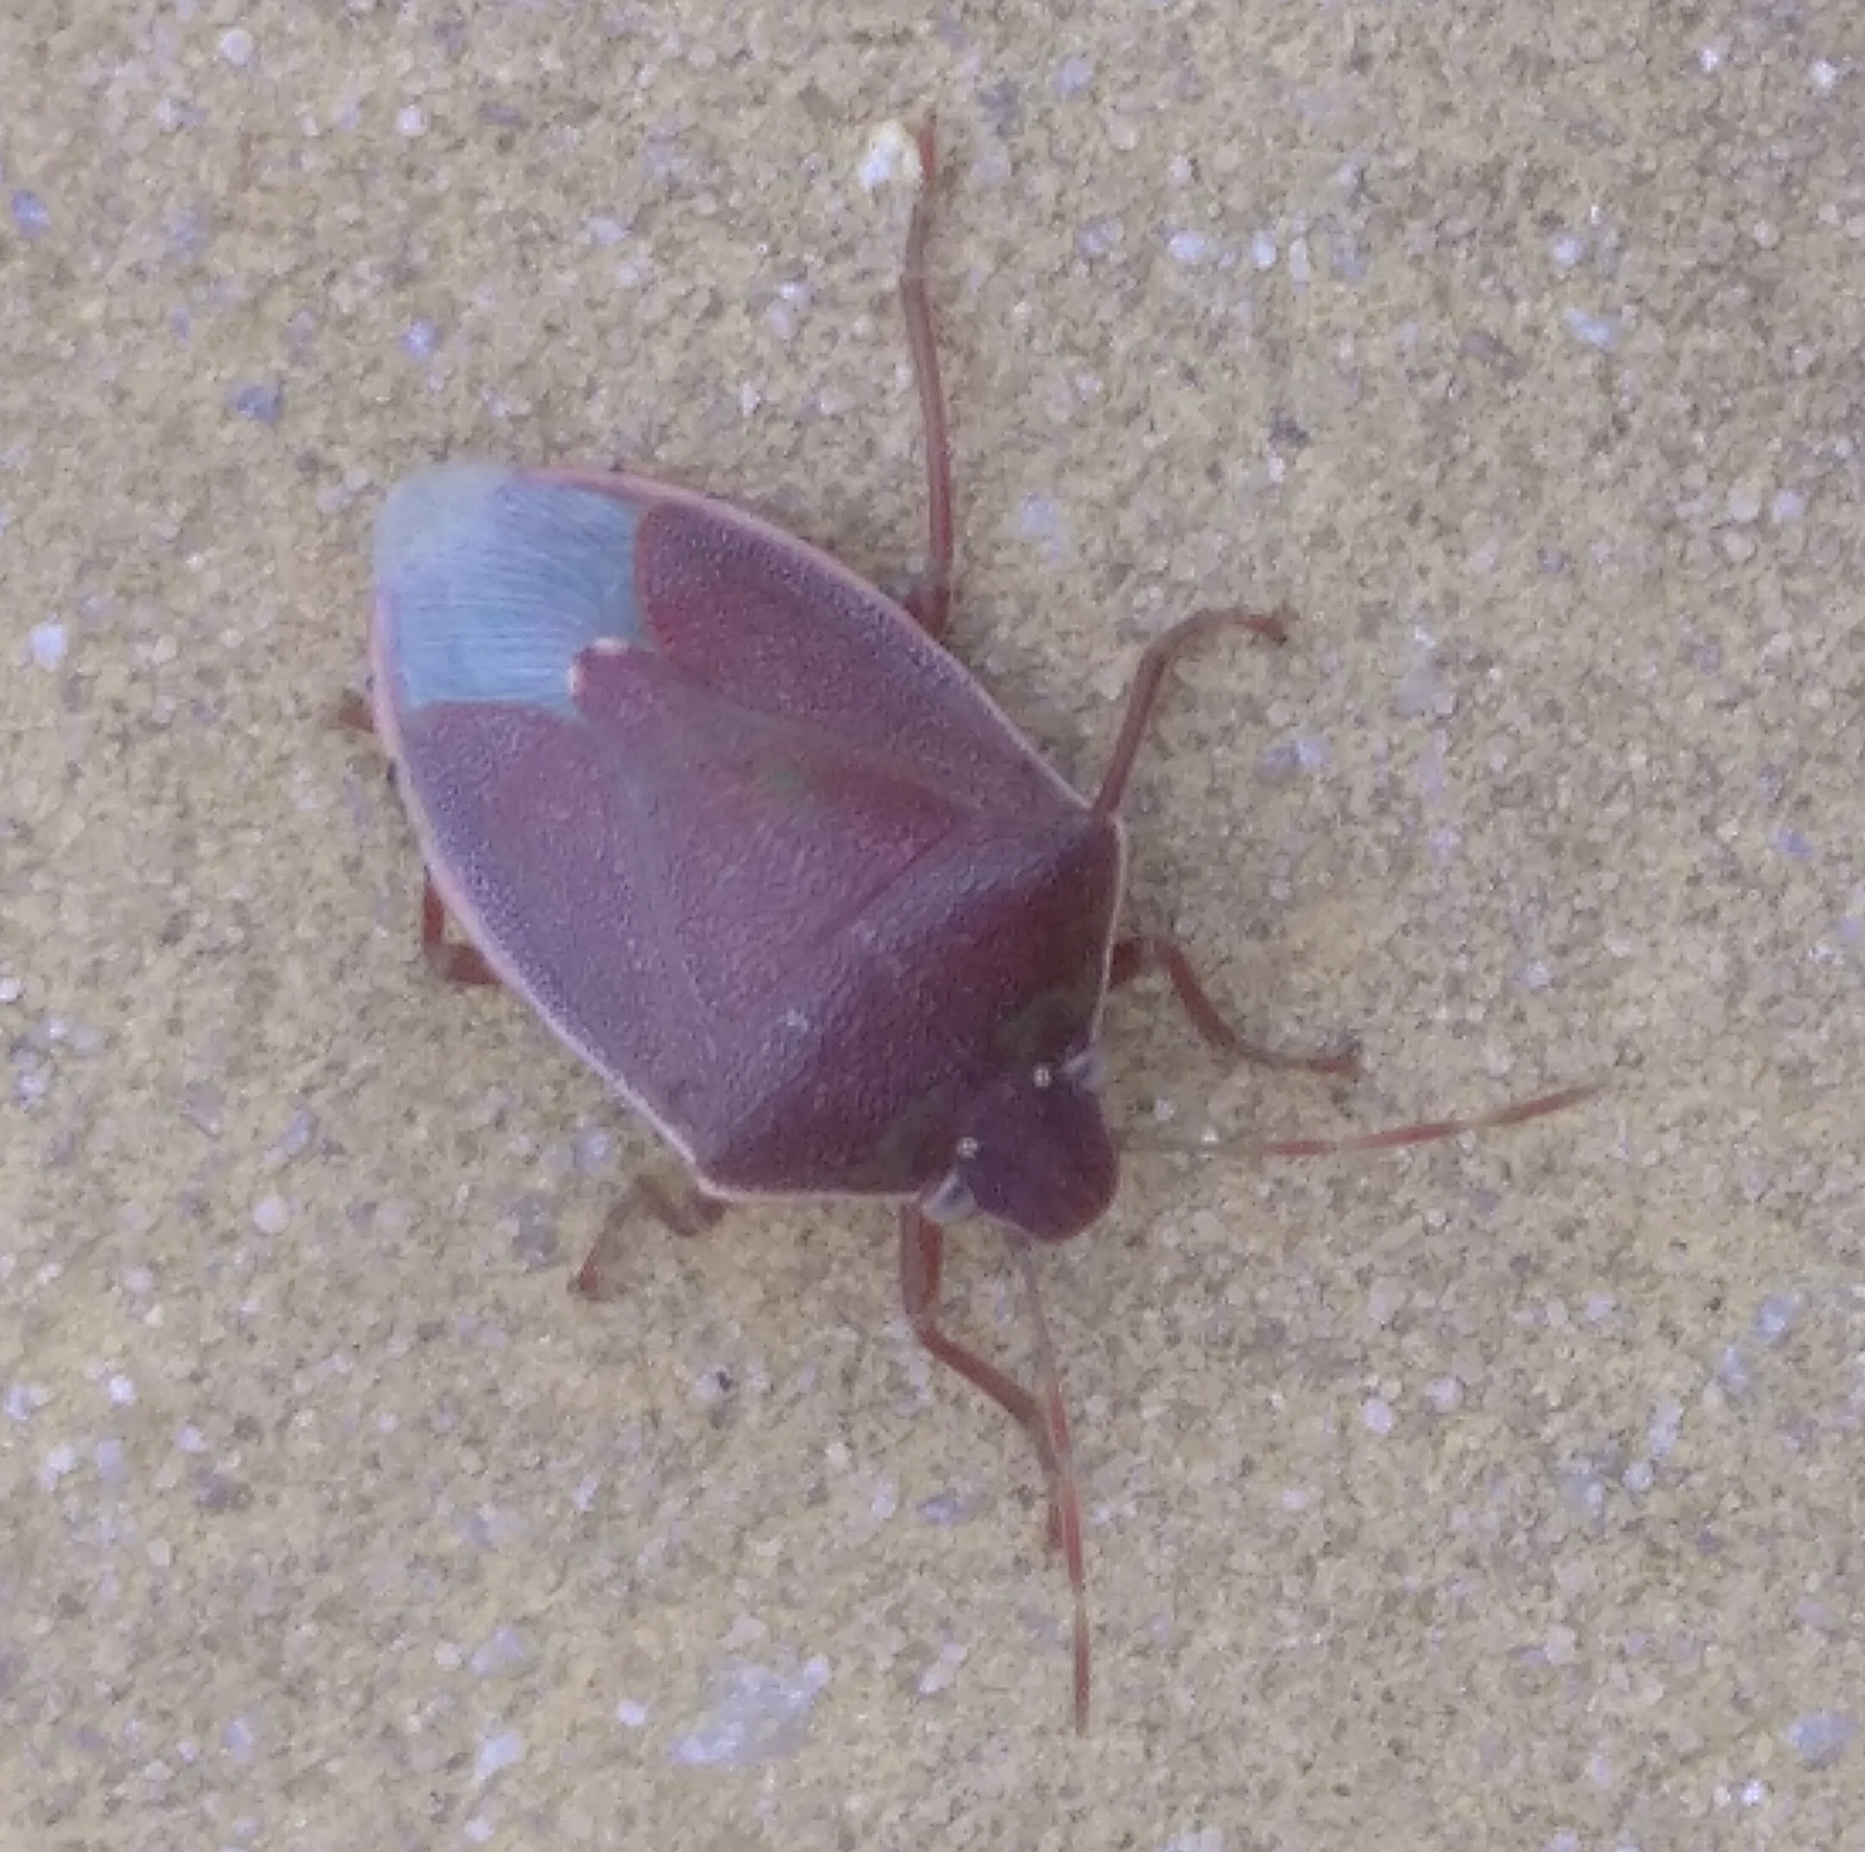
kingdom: Animalia
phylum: Arthropoda
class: Insecta
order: Hemiptera
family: Pentatomidae
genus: Acrosternum
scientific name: Acrosternum heegeri
